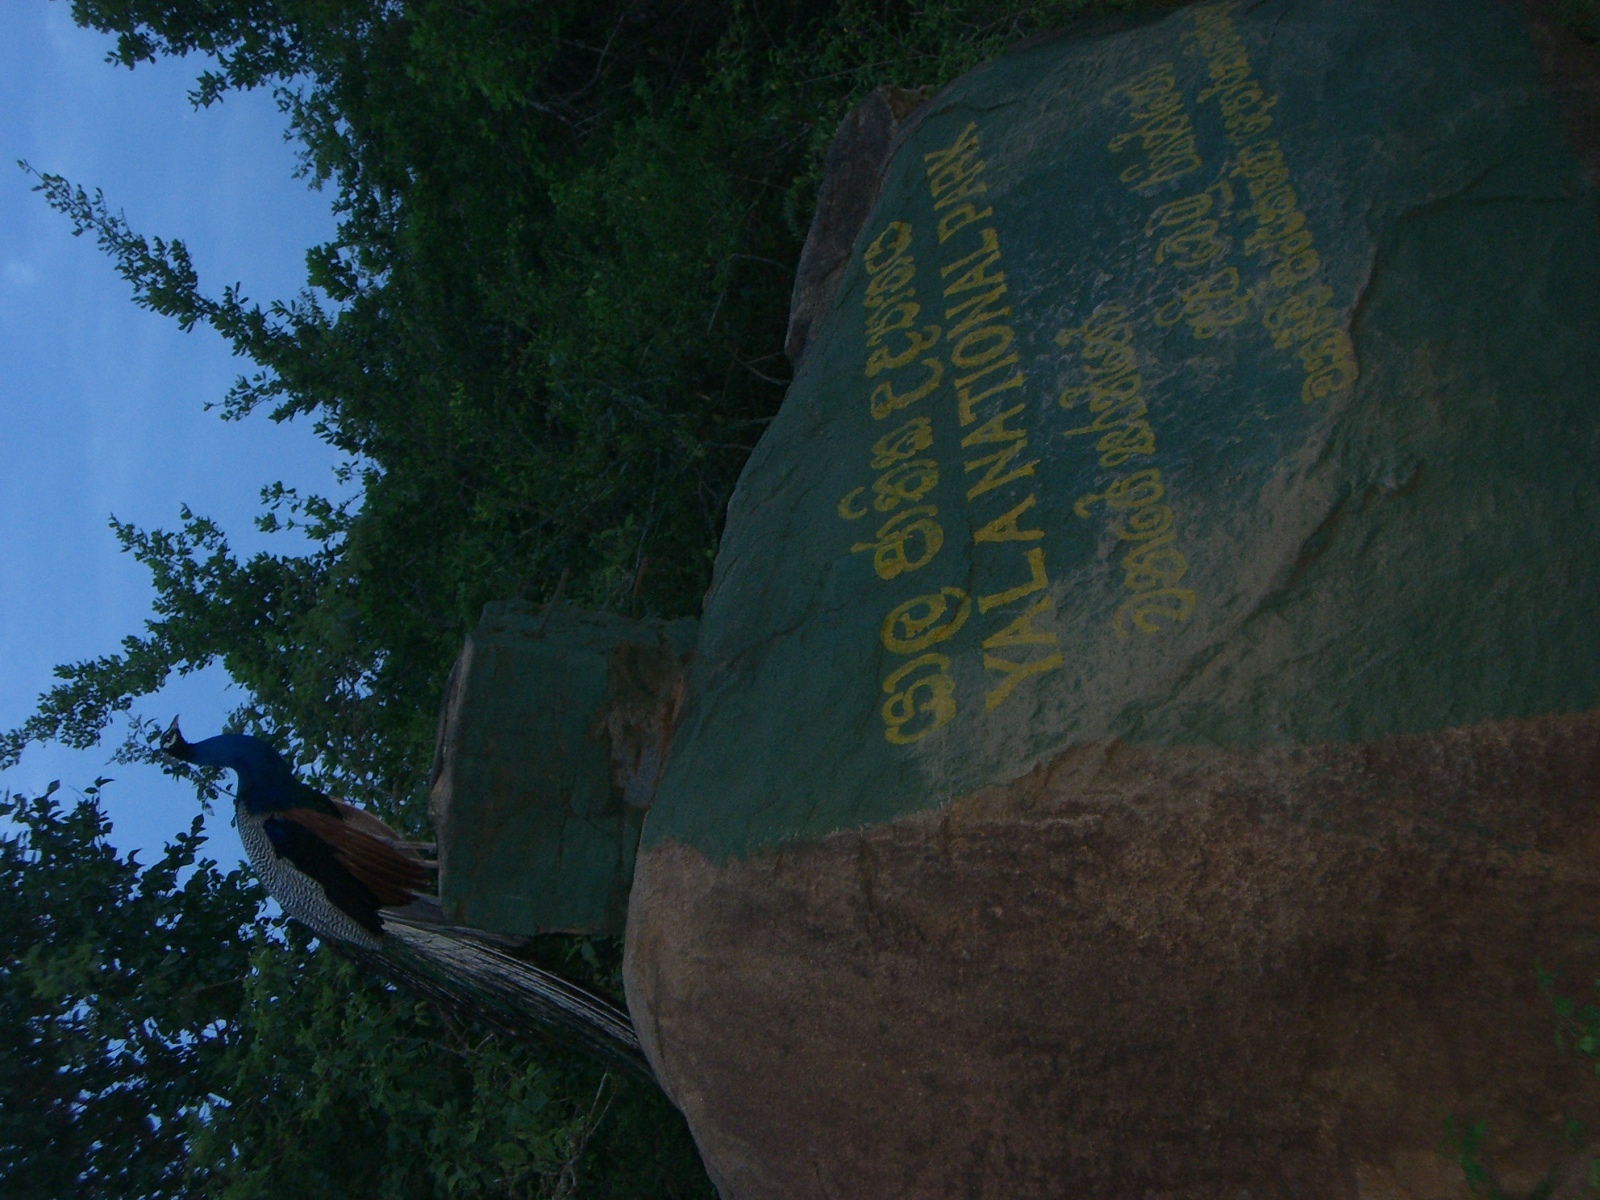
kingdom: Animalia
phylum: Chordata
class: Aves
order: Galliformes
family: Phasianidae
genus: Pavo
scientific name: Pavo cristatus
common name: Indian peafowl
